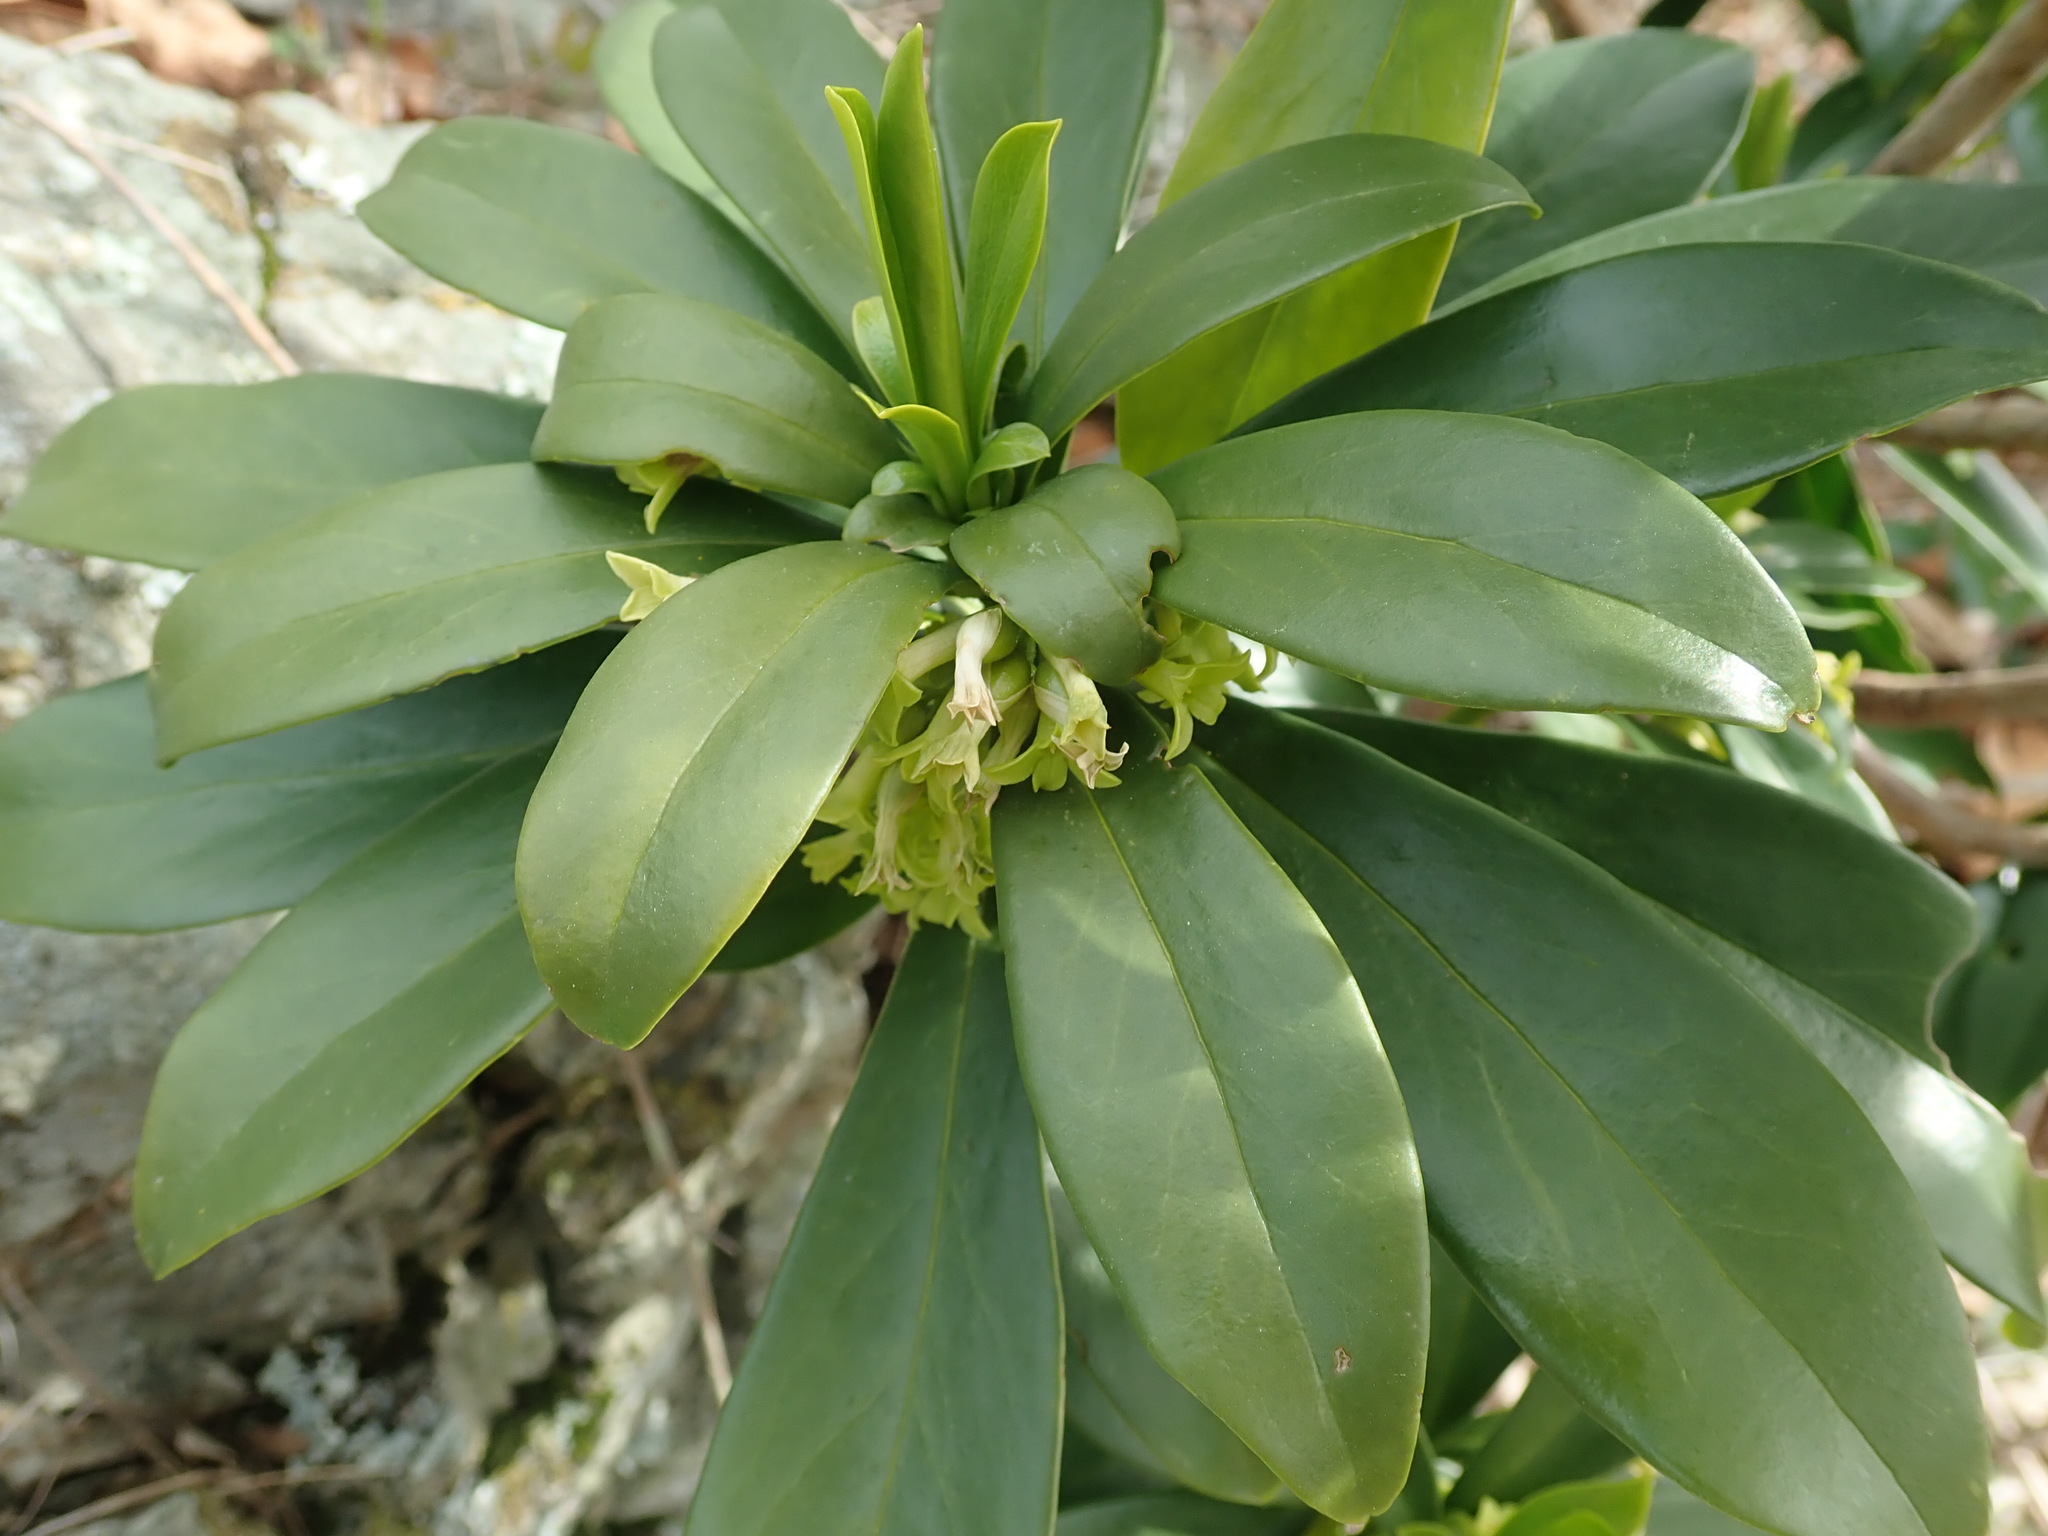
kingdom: Plantae
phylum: Tracheophyta
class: Magnoliopsida
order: Malvales
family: Thymelaeaceae
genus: Daphne
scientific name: Daphne laureola
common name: Spurge-laurel
